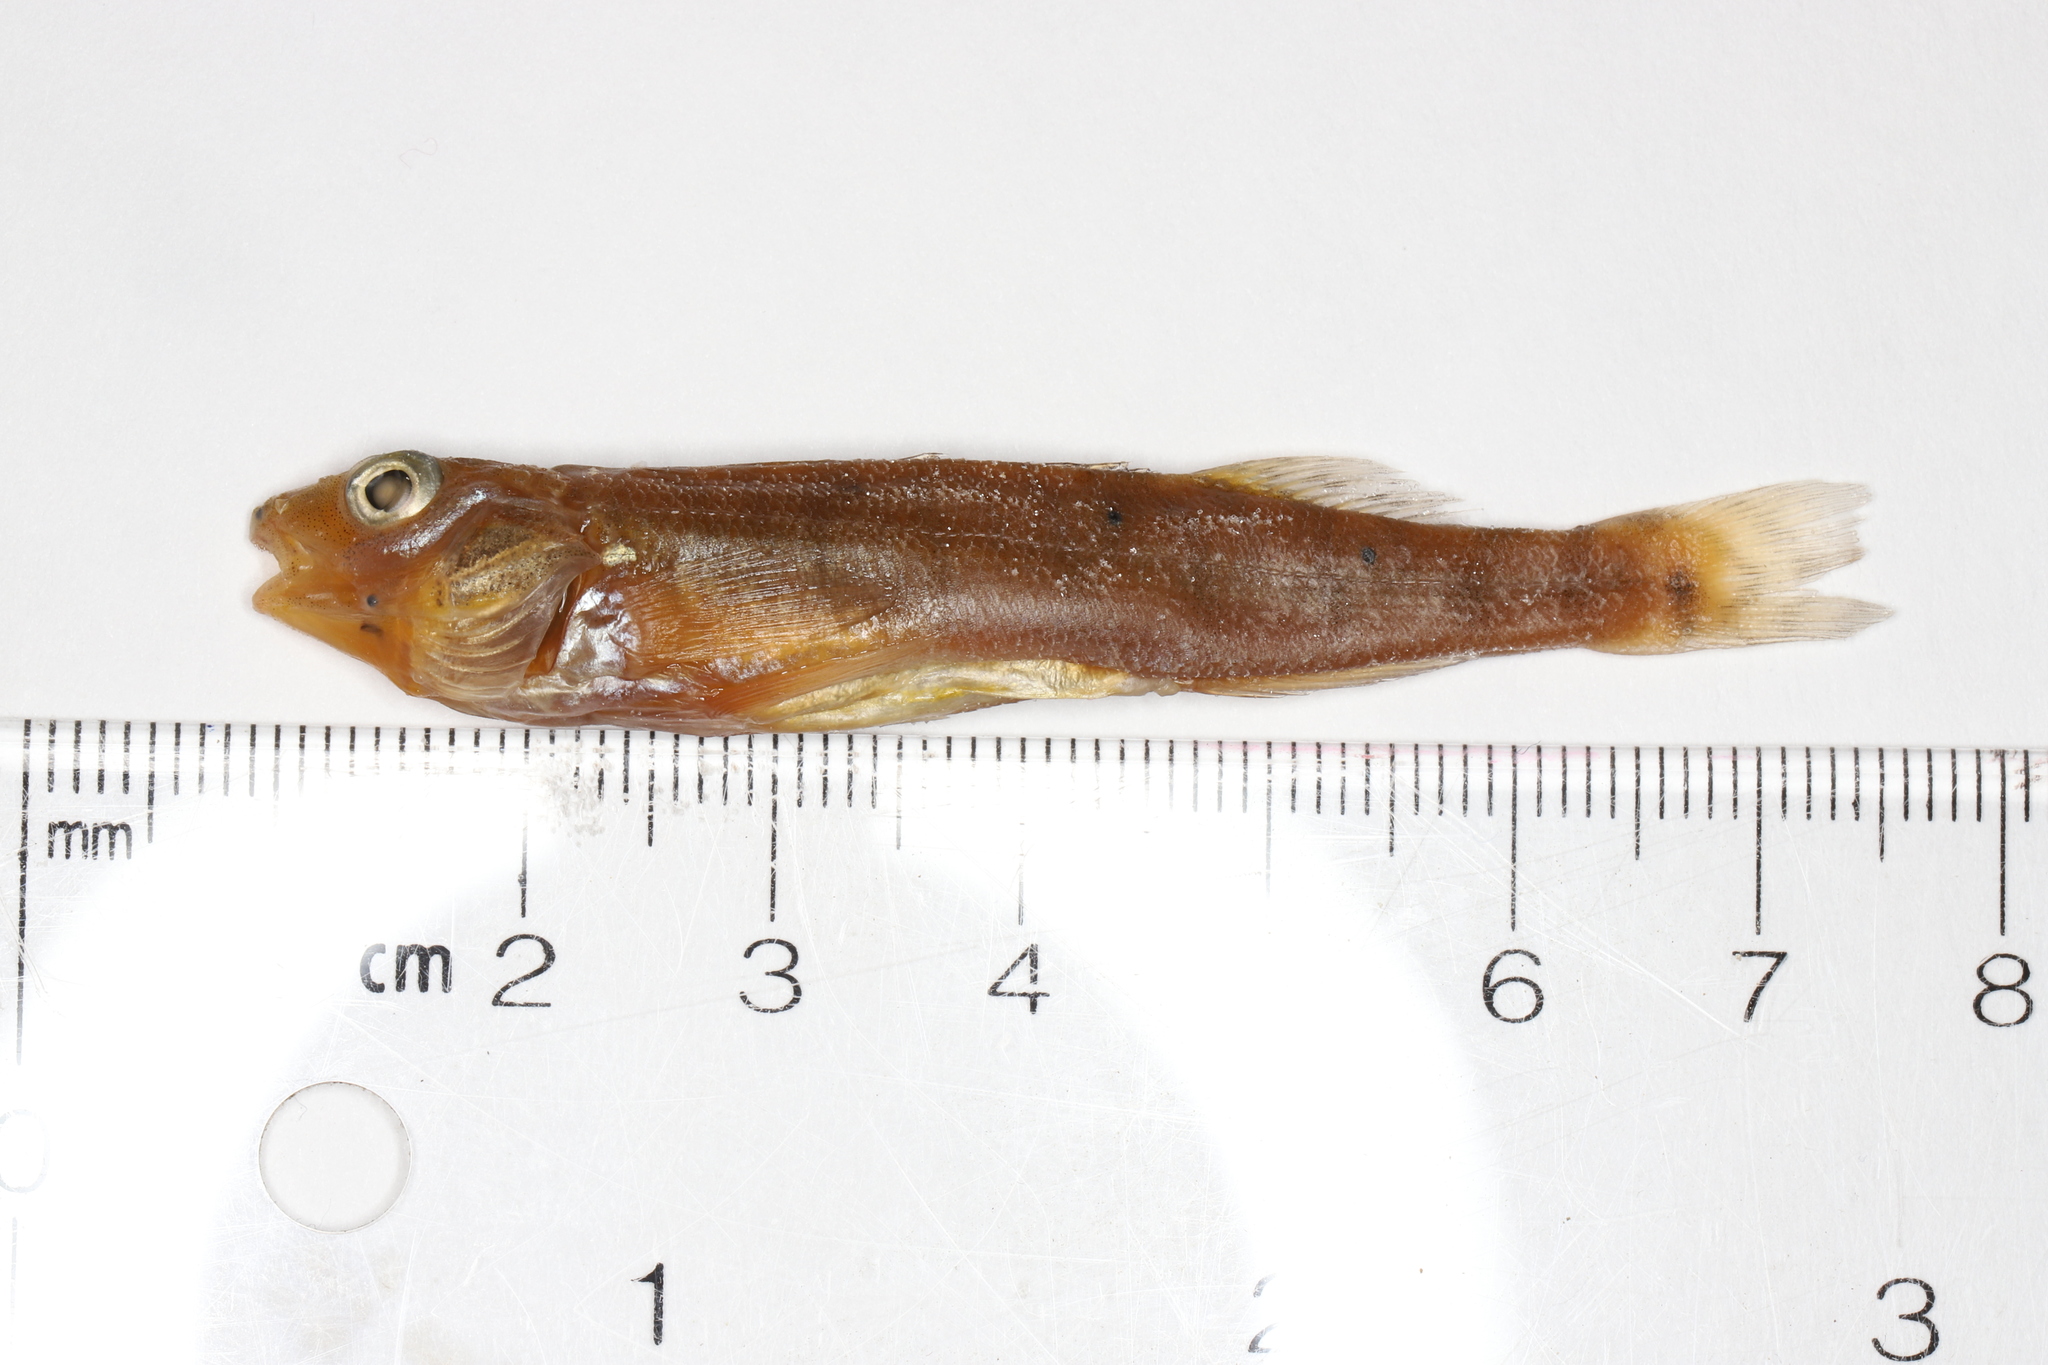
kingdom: Animalia
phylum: Chordata
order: Perciformes
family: Percidae
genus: Percina
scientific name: Percina caprodes
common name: Logperch
